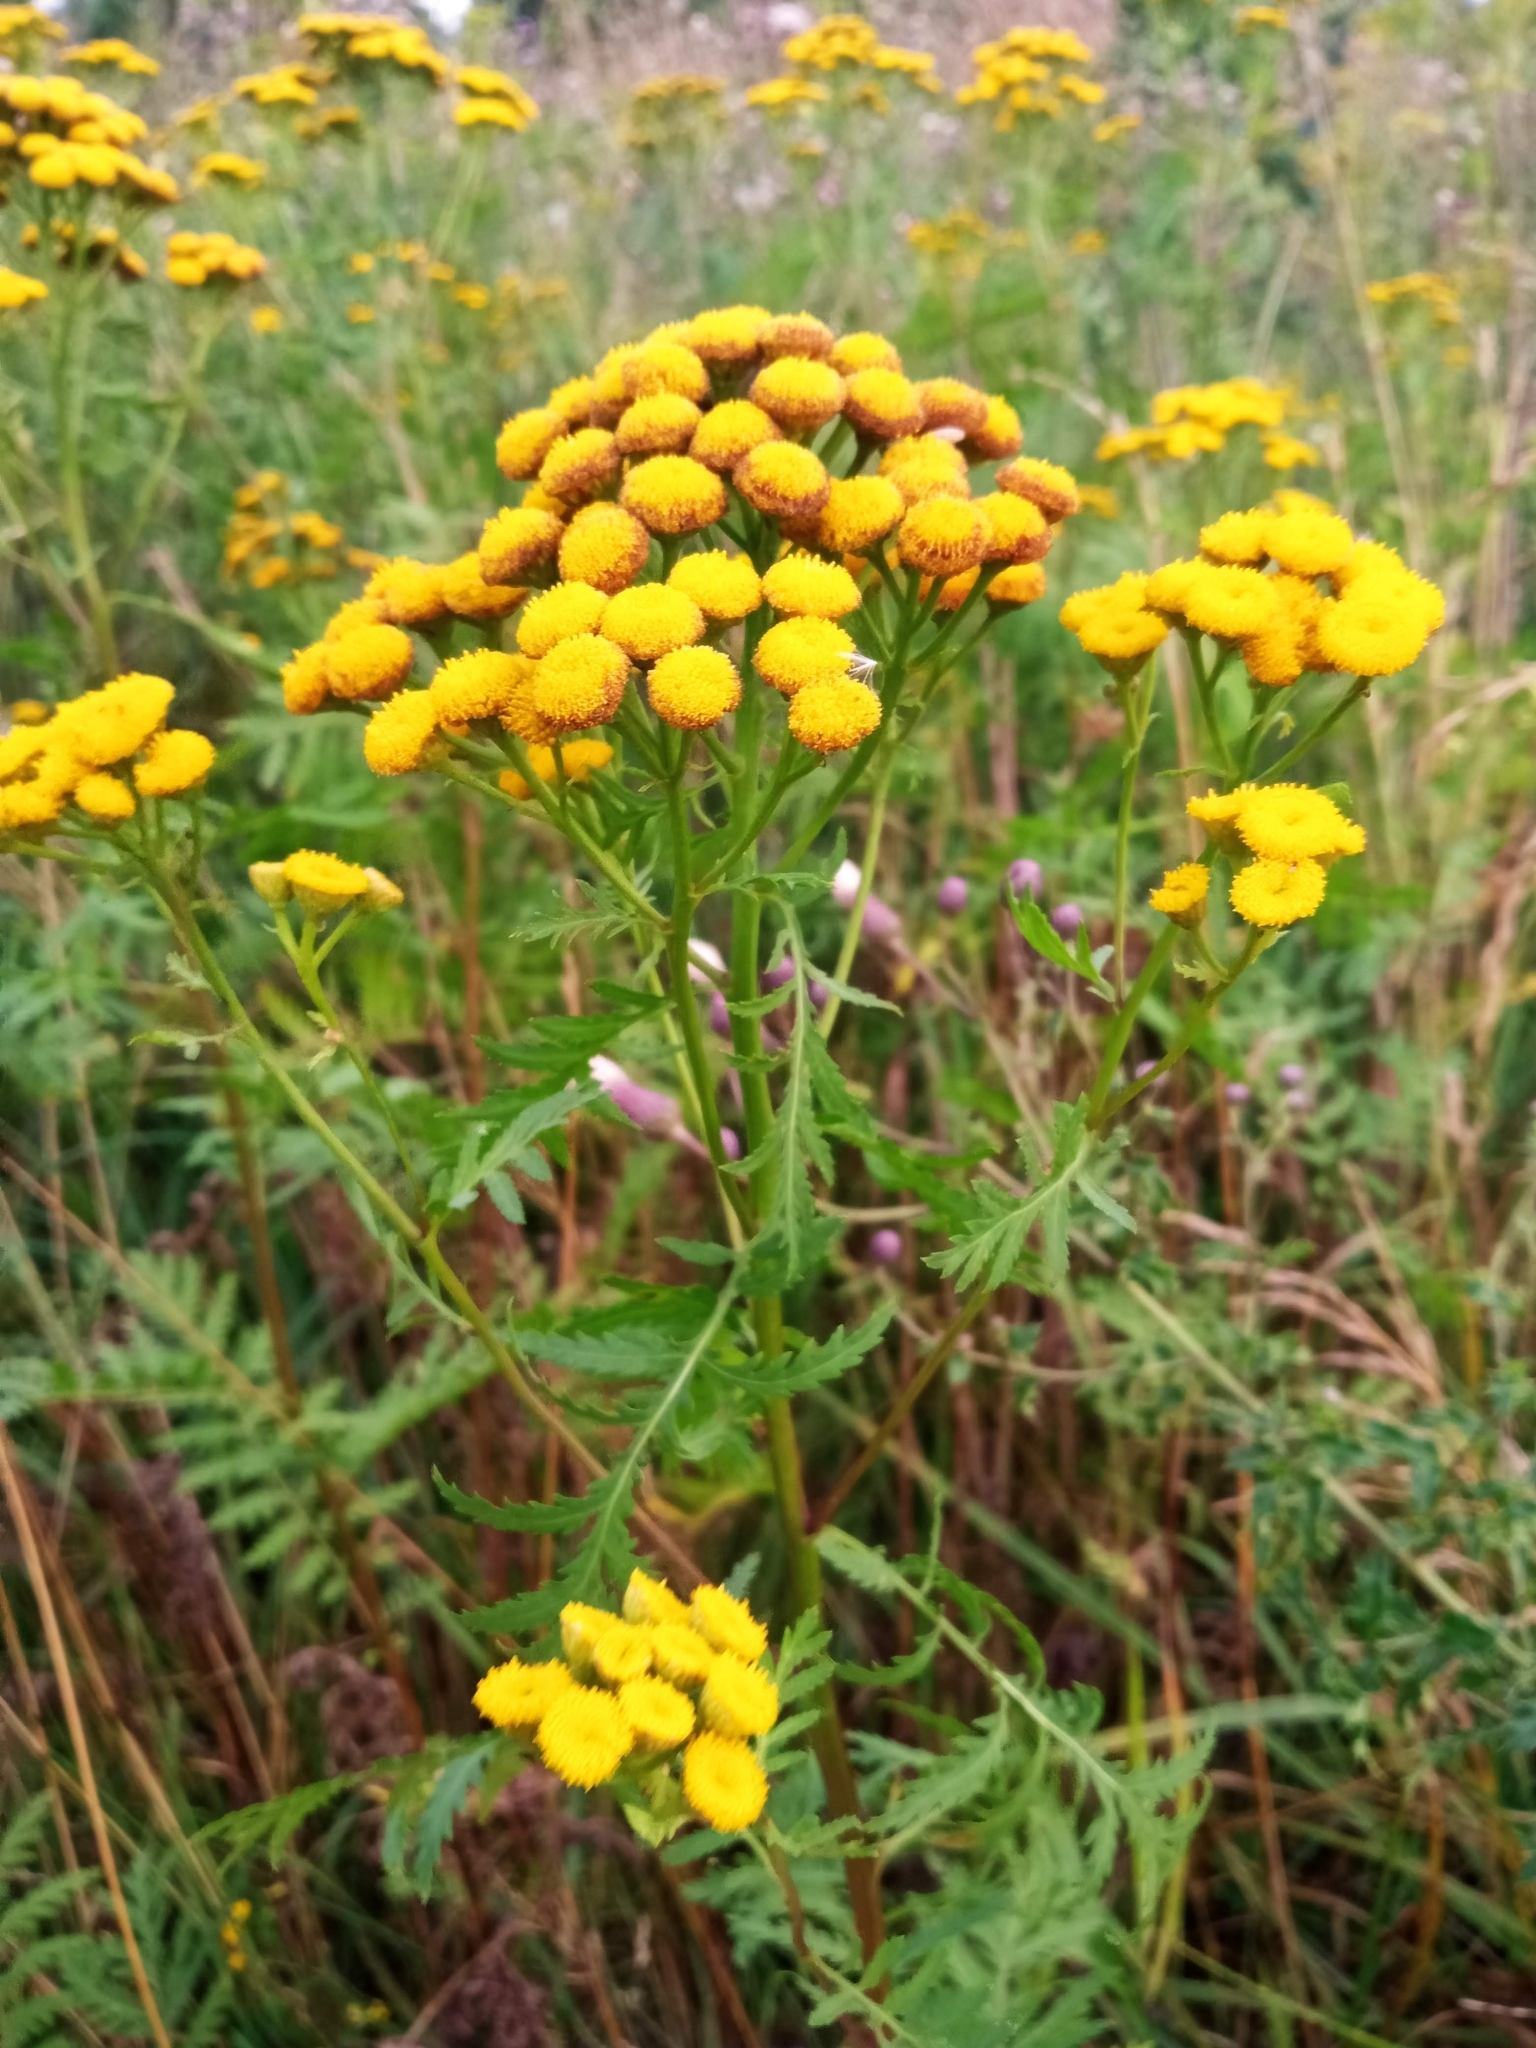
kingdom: Plantae
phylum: Tracheophyta
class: Magnoliopsida
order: Asterales
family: Asteraceae
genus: Tanacetum
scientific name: Tanacetum vulgare
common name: Common tansy
